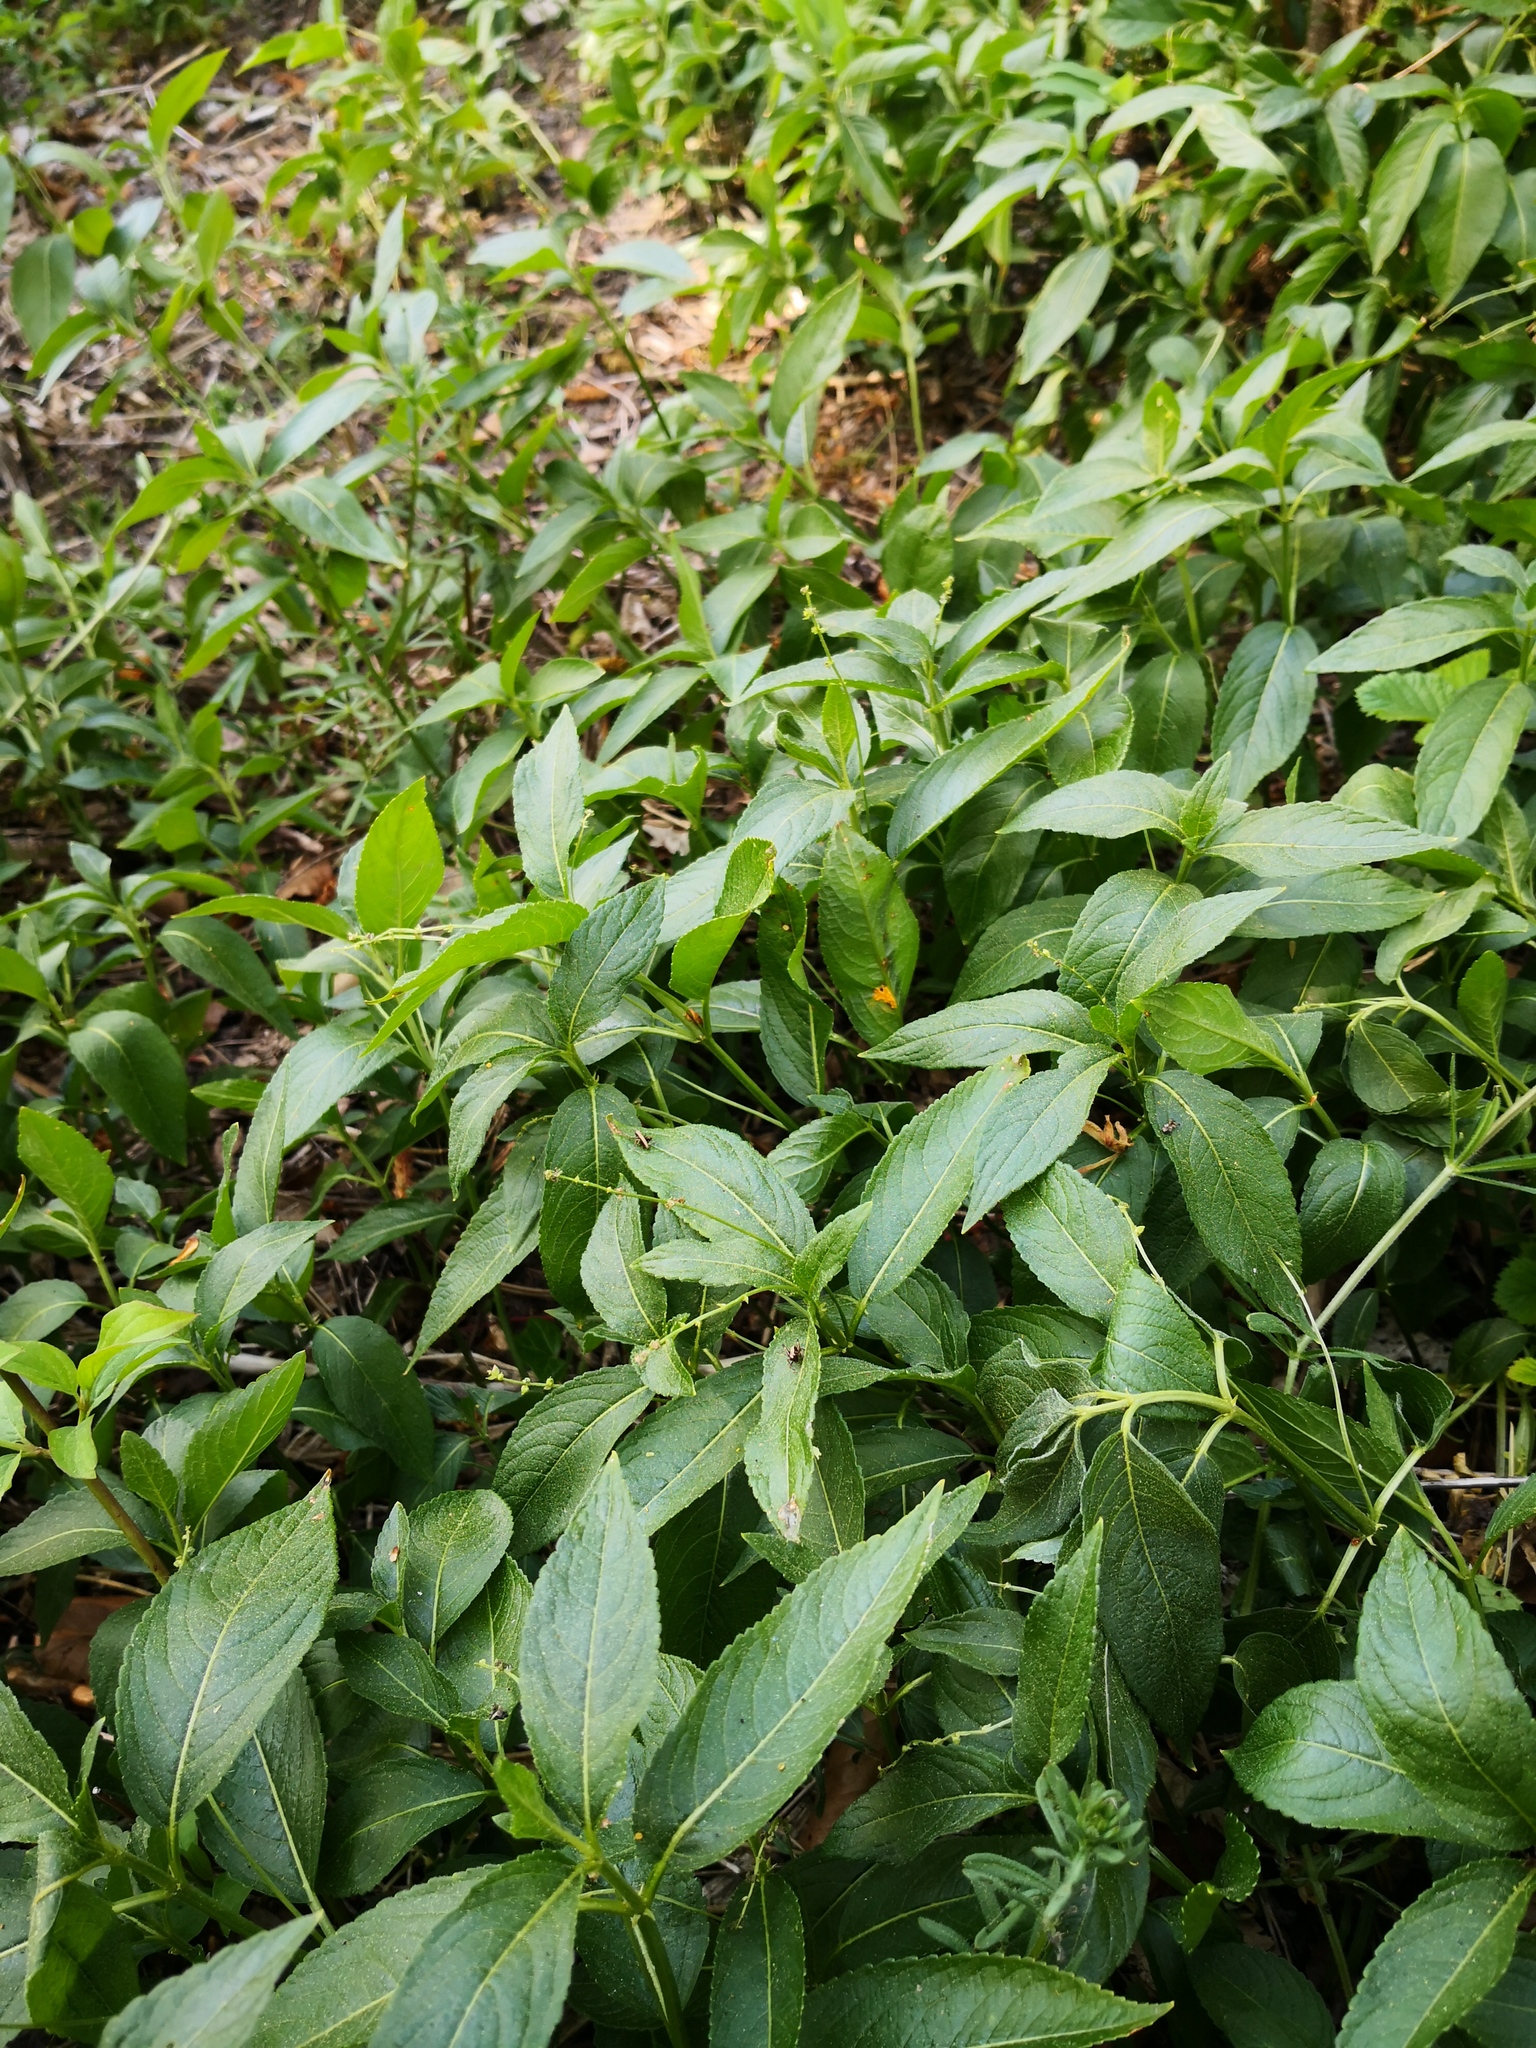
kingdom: Plantae
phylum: Tracheophyta
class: Magnoliopsida
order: Malpighiales
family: Euphorbiaceae
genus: Mercurialis
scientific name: Mercurialis perennis
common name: Dog mercury
